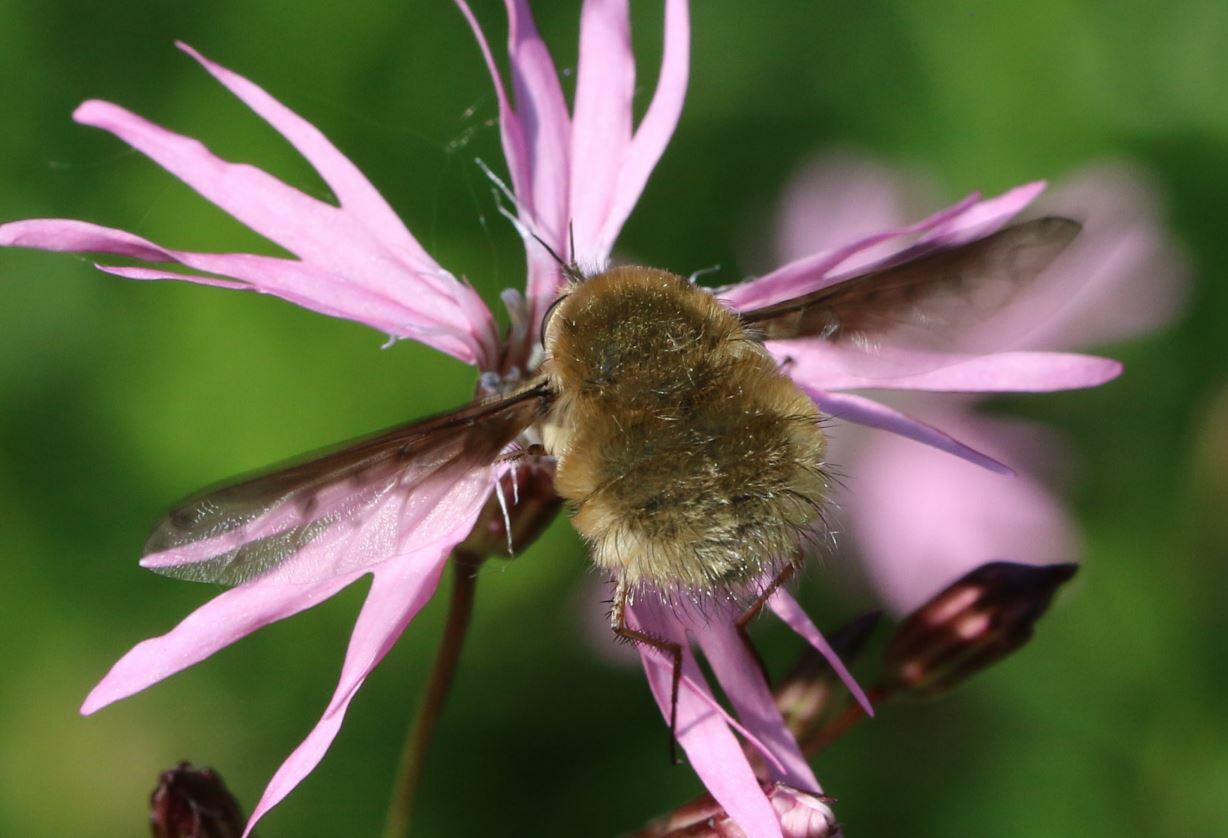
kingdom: Animalia
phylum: Arthropoda
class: Insecta
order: Diptera
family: Bombyliidae
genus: Bombylius
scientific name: Bombylius medius
